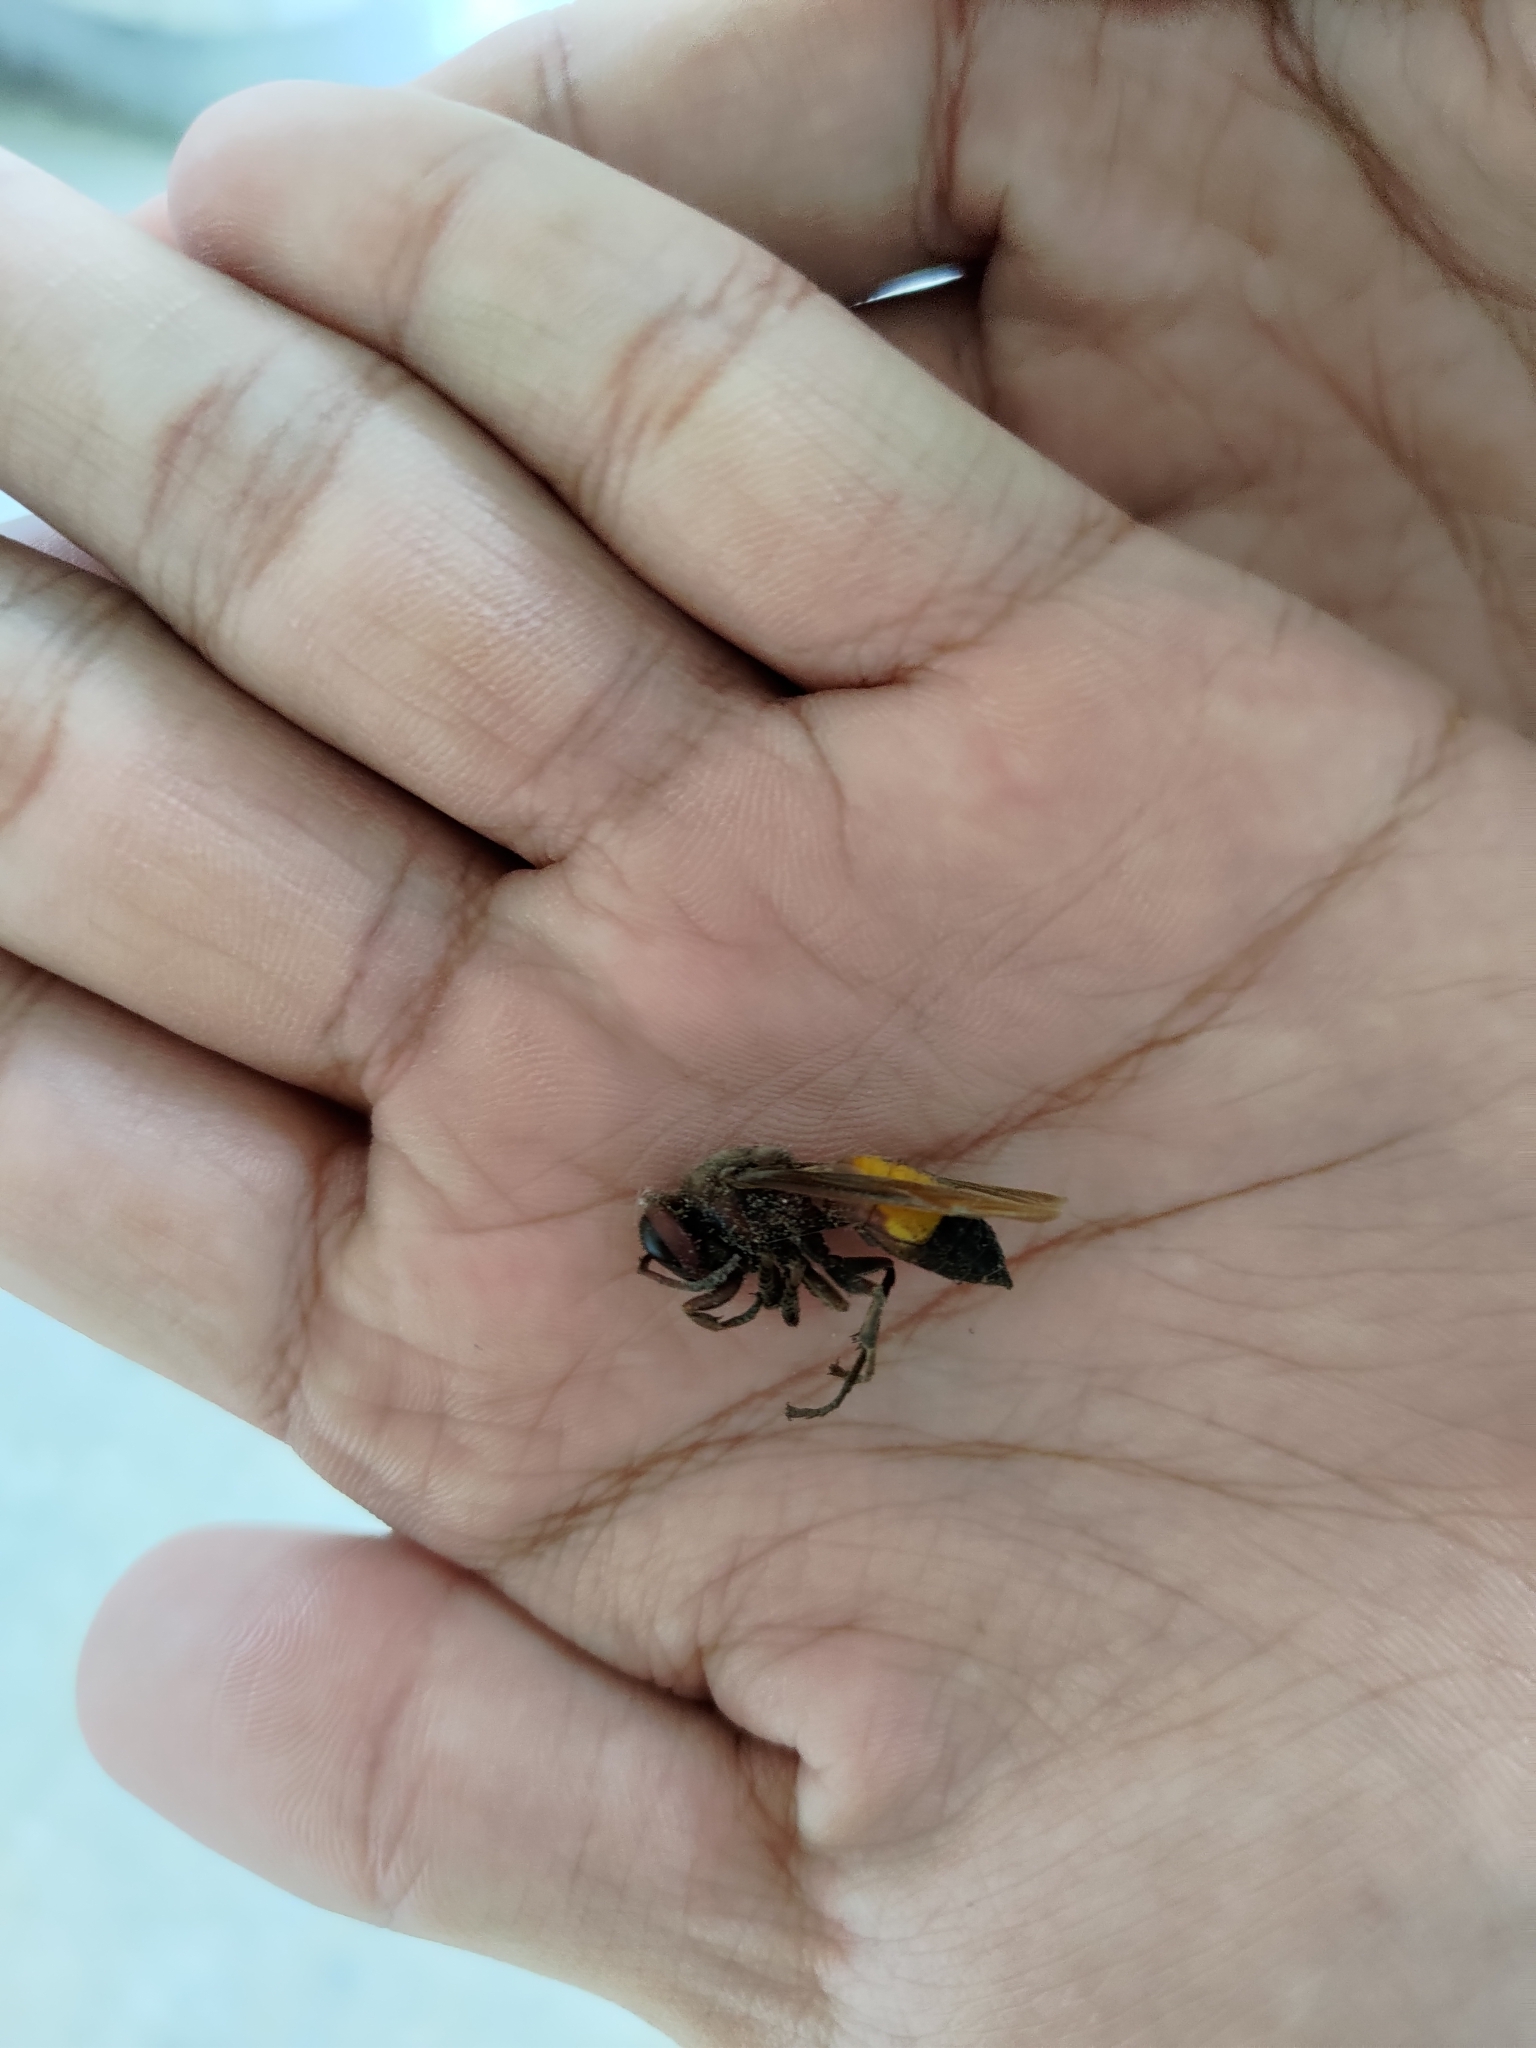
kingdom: Animalia
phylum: Arthropoda
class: Insecta
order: Hymenoptera
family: Vespidae
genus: Vespa
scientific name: Vespa affinis
